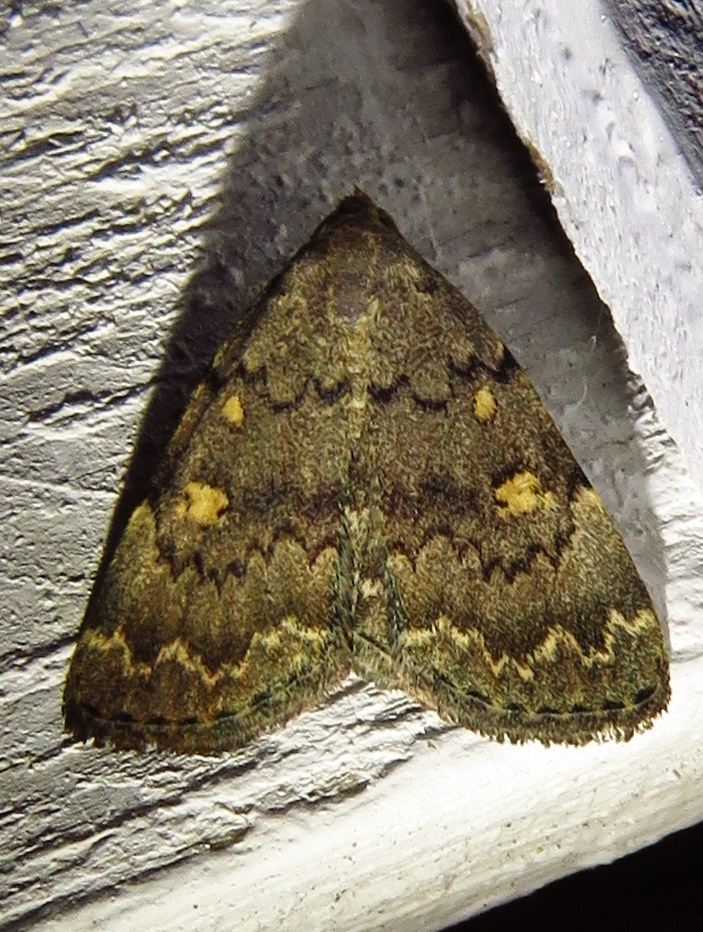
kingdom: Animalia
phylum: Arthropoda
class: Insecta
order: Lepidoptera
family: Erebidae
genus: Idia
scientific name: Idia aemula
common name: Common idia moth
